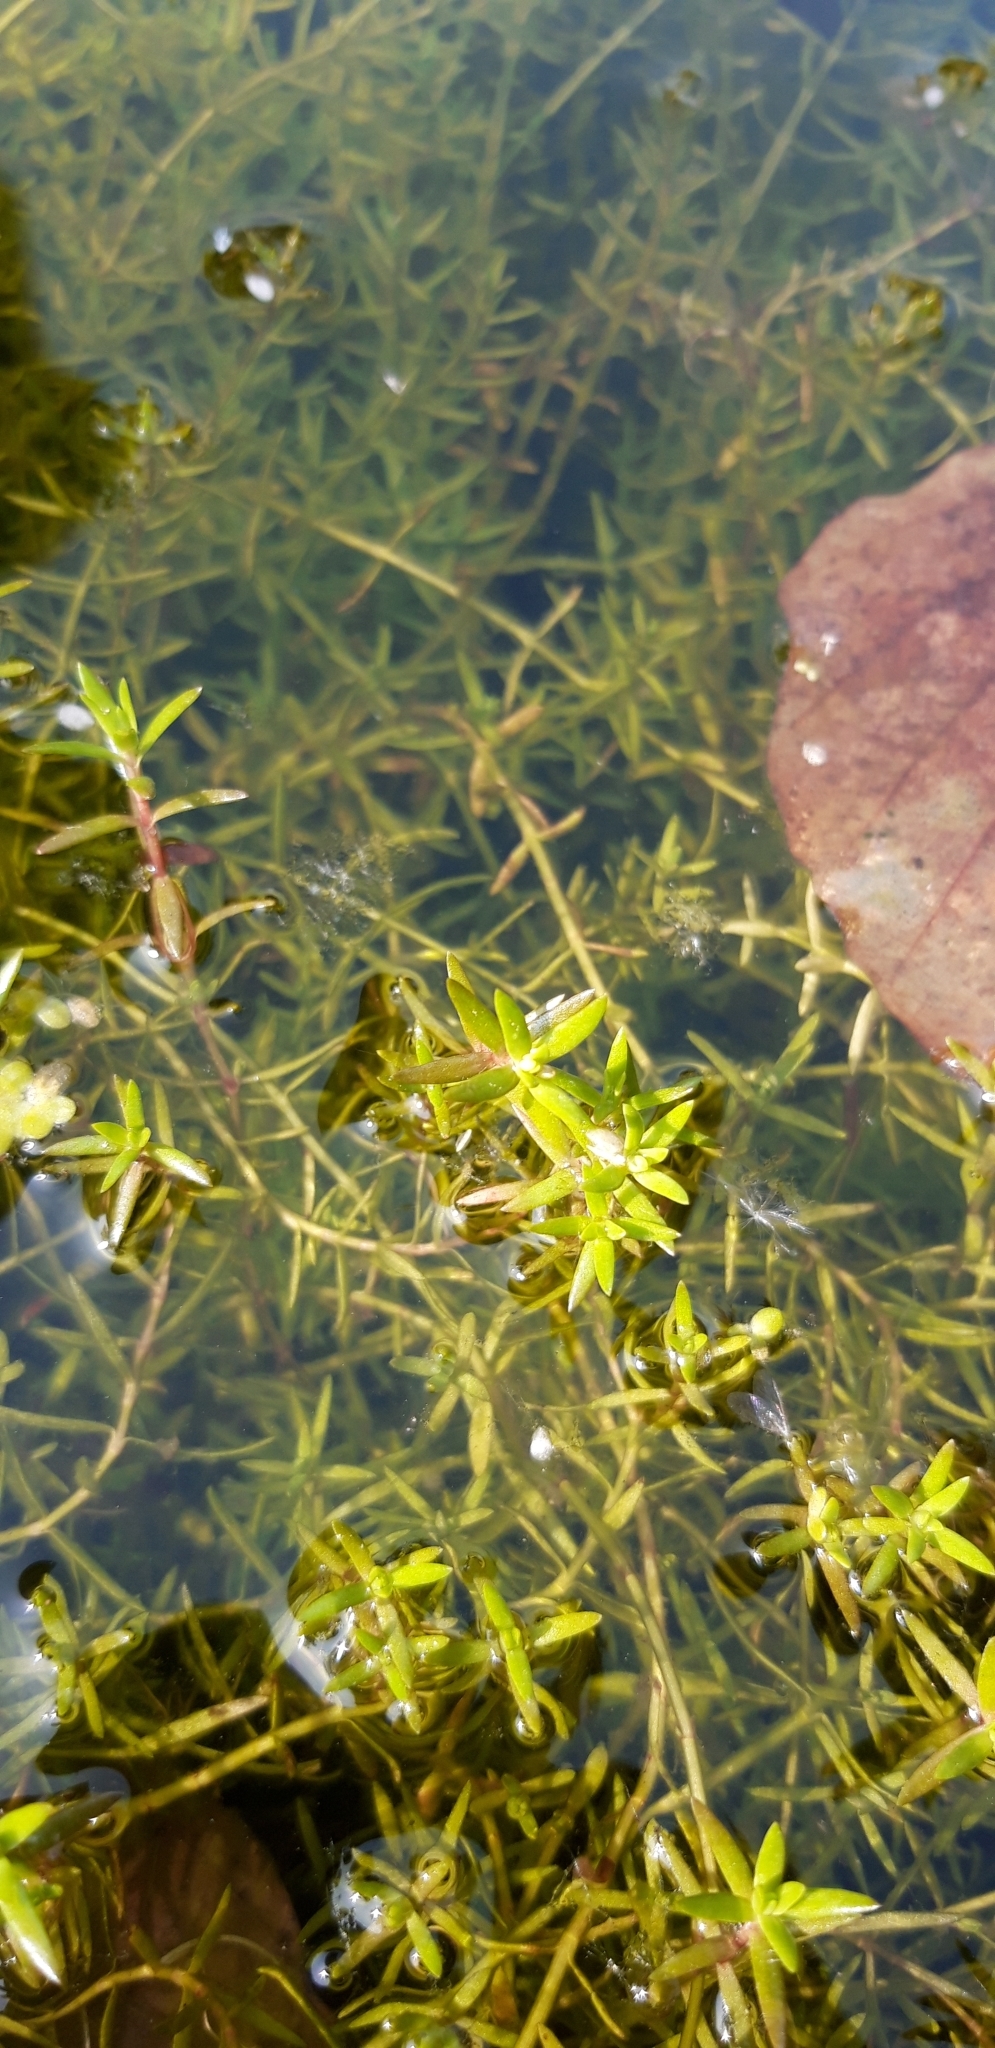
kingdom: Plantae
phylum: Tracheophyta
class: Magnoliopsida
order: Saxifragales
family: Crassulaceae
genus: Crassula
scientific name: Crassula helmsii
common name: New zealand pigmyweed
